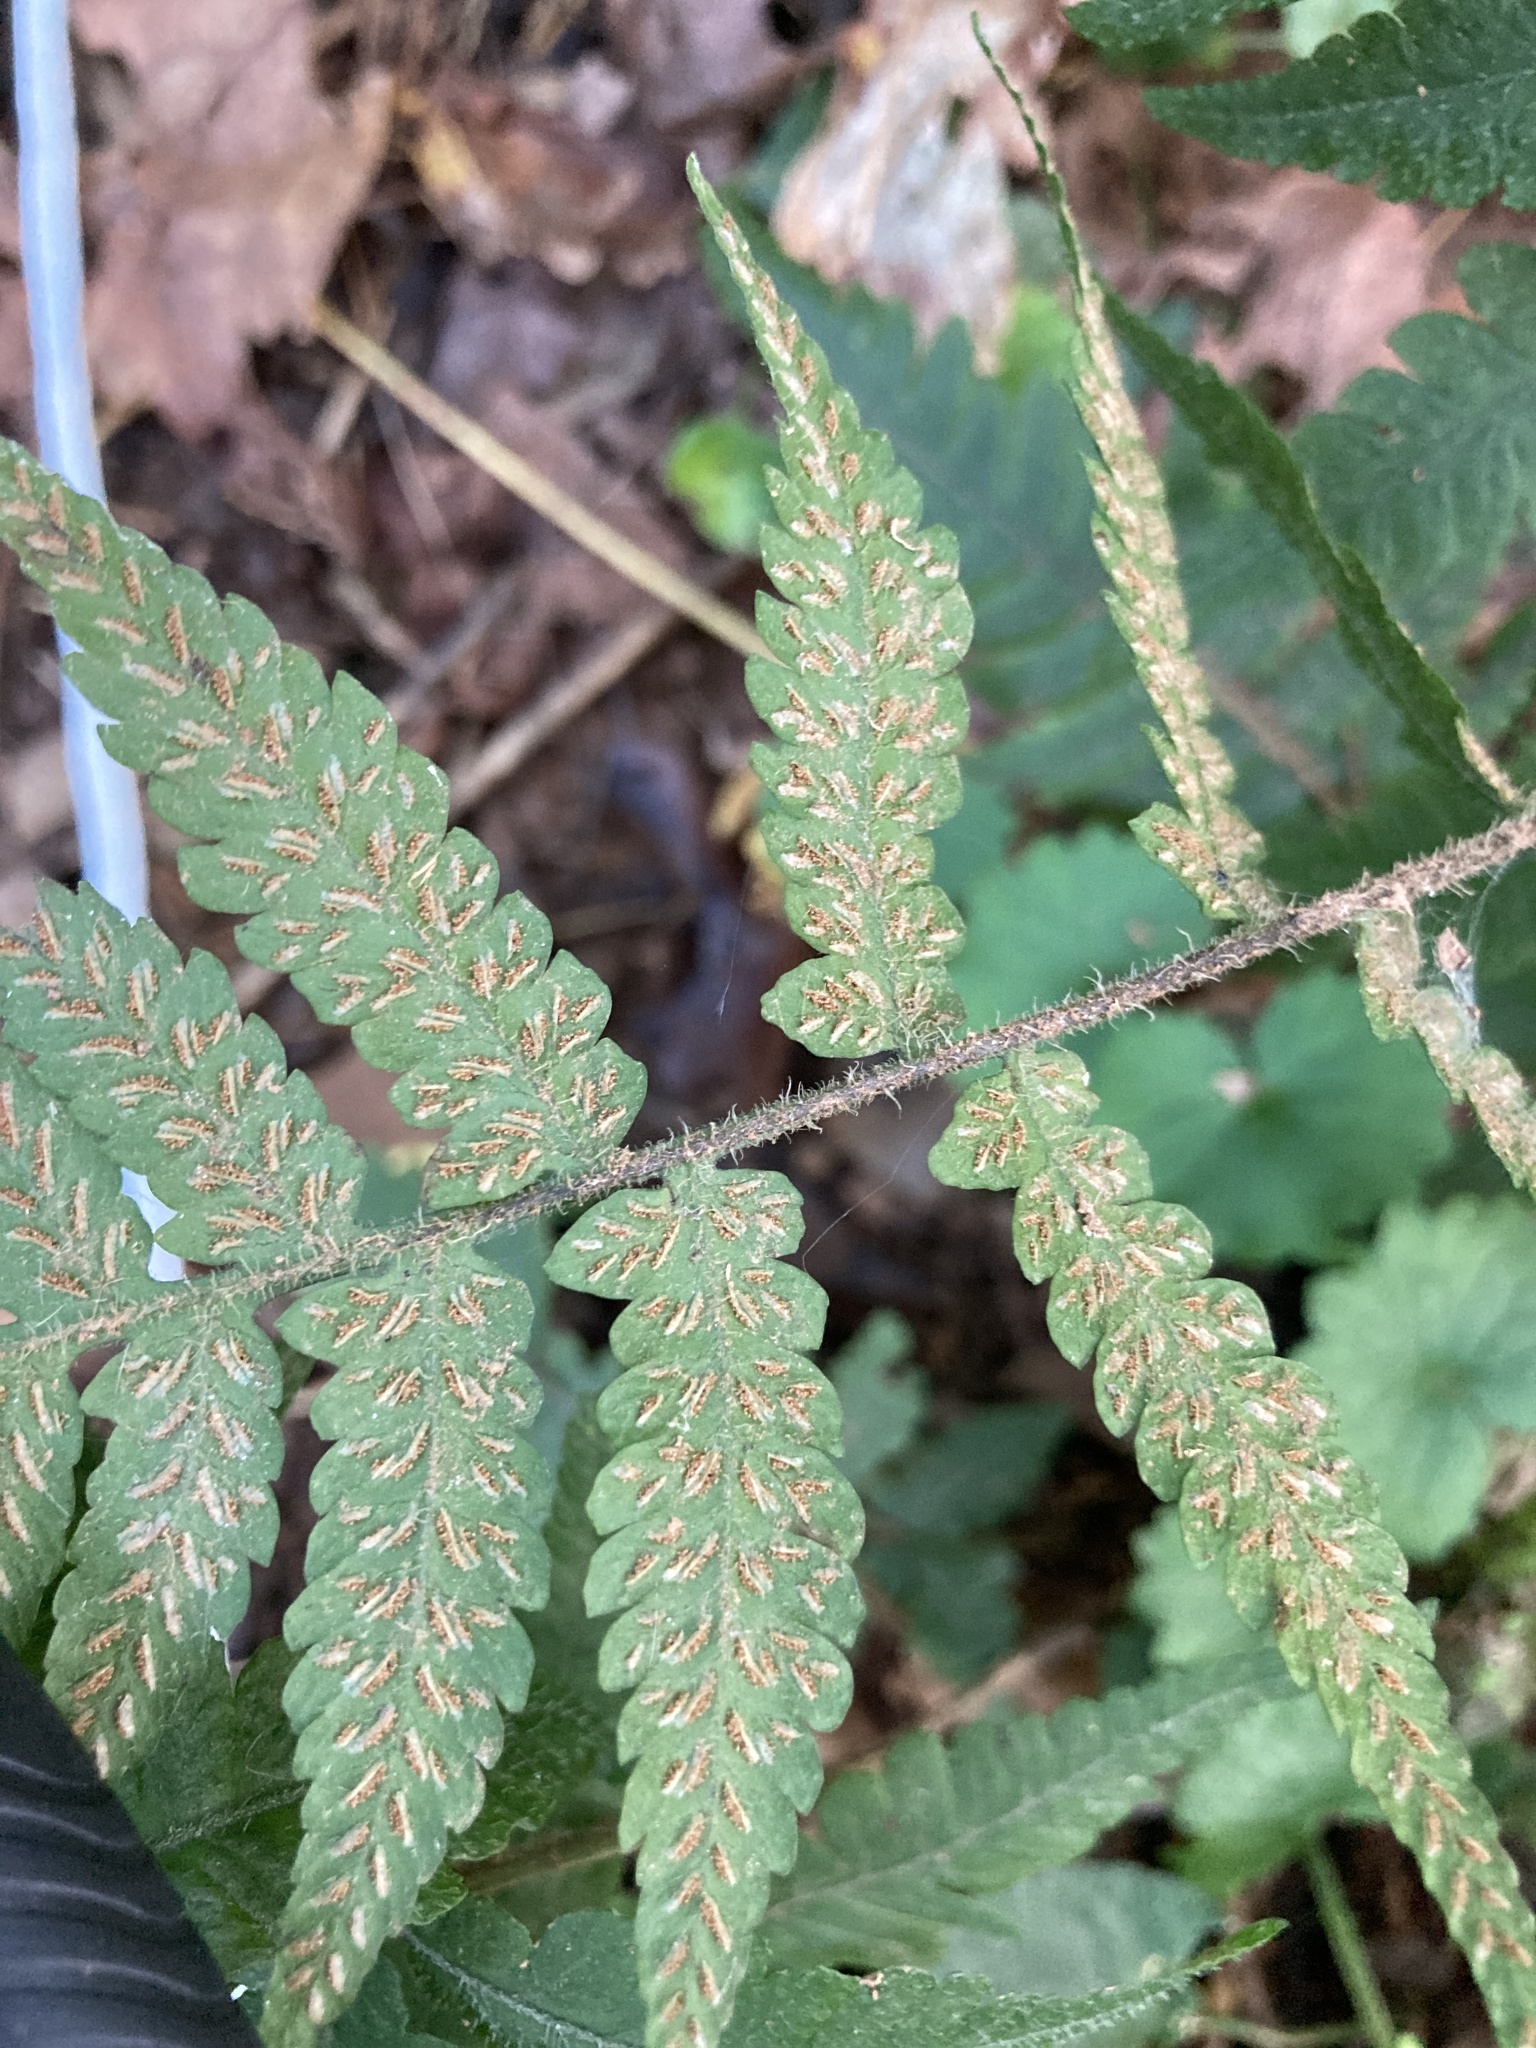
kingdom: Plantae
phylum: Tracheophyta
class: Polypodiopsida
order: Polypodiales
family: Athyriaceae
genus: Deparia
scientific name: Deparia petersenii
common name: Japanese false spleenwort
